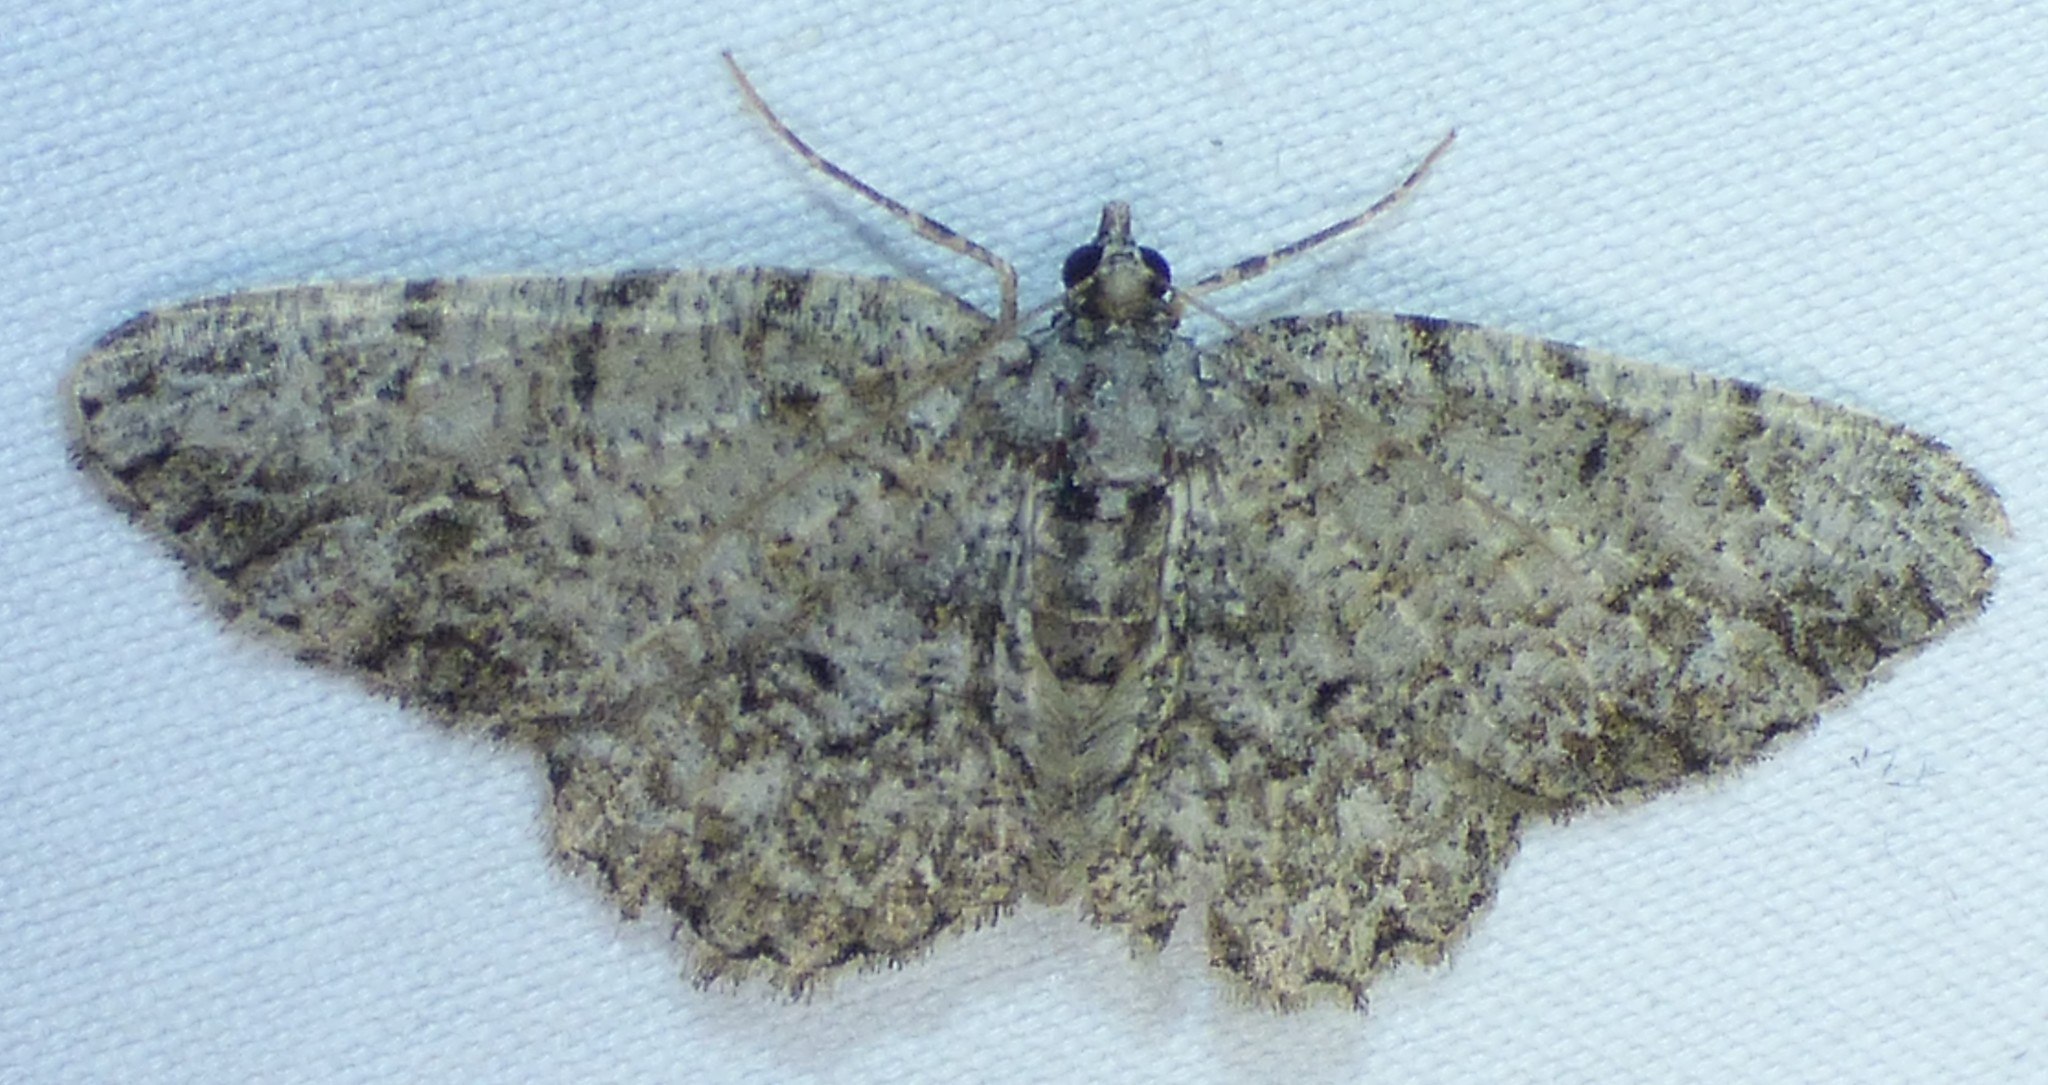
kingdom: Animalia
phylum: Arthropoda
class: Insecta
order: Lepidoptera
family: Geometridae
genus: Protoboarmia
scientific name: Protoboarmia porcelaria
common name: Porcelain gray
